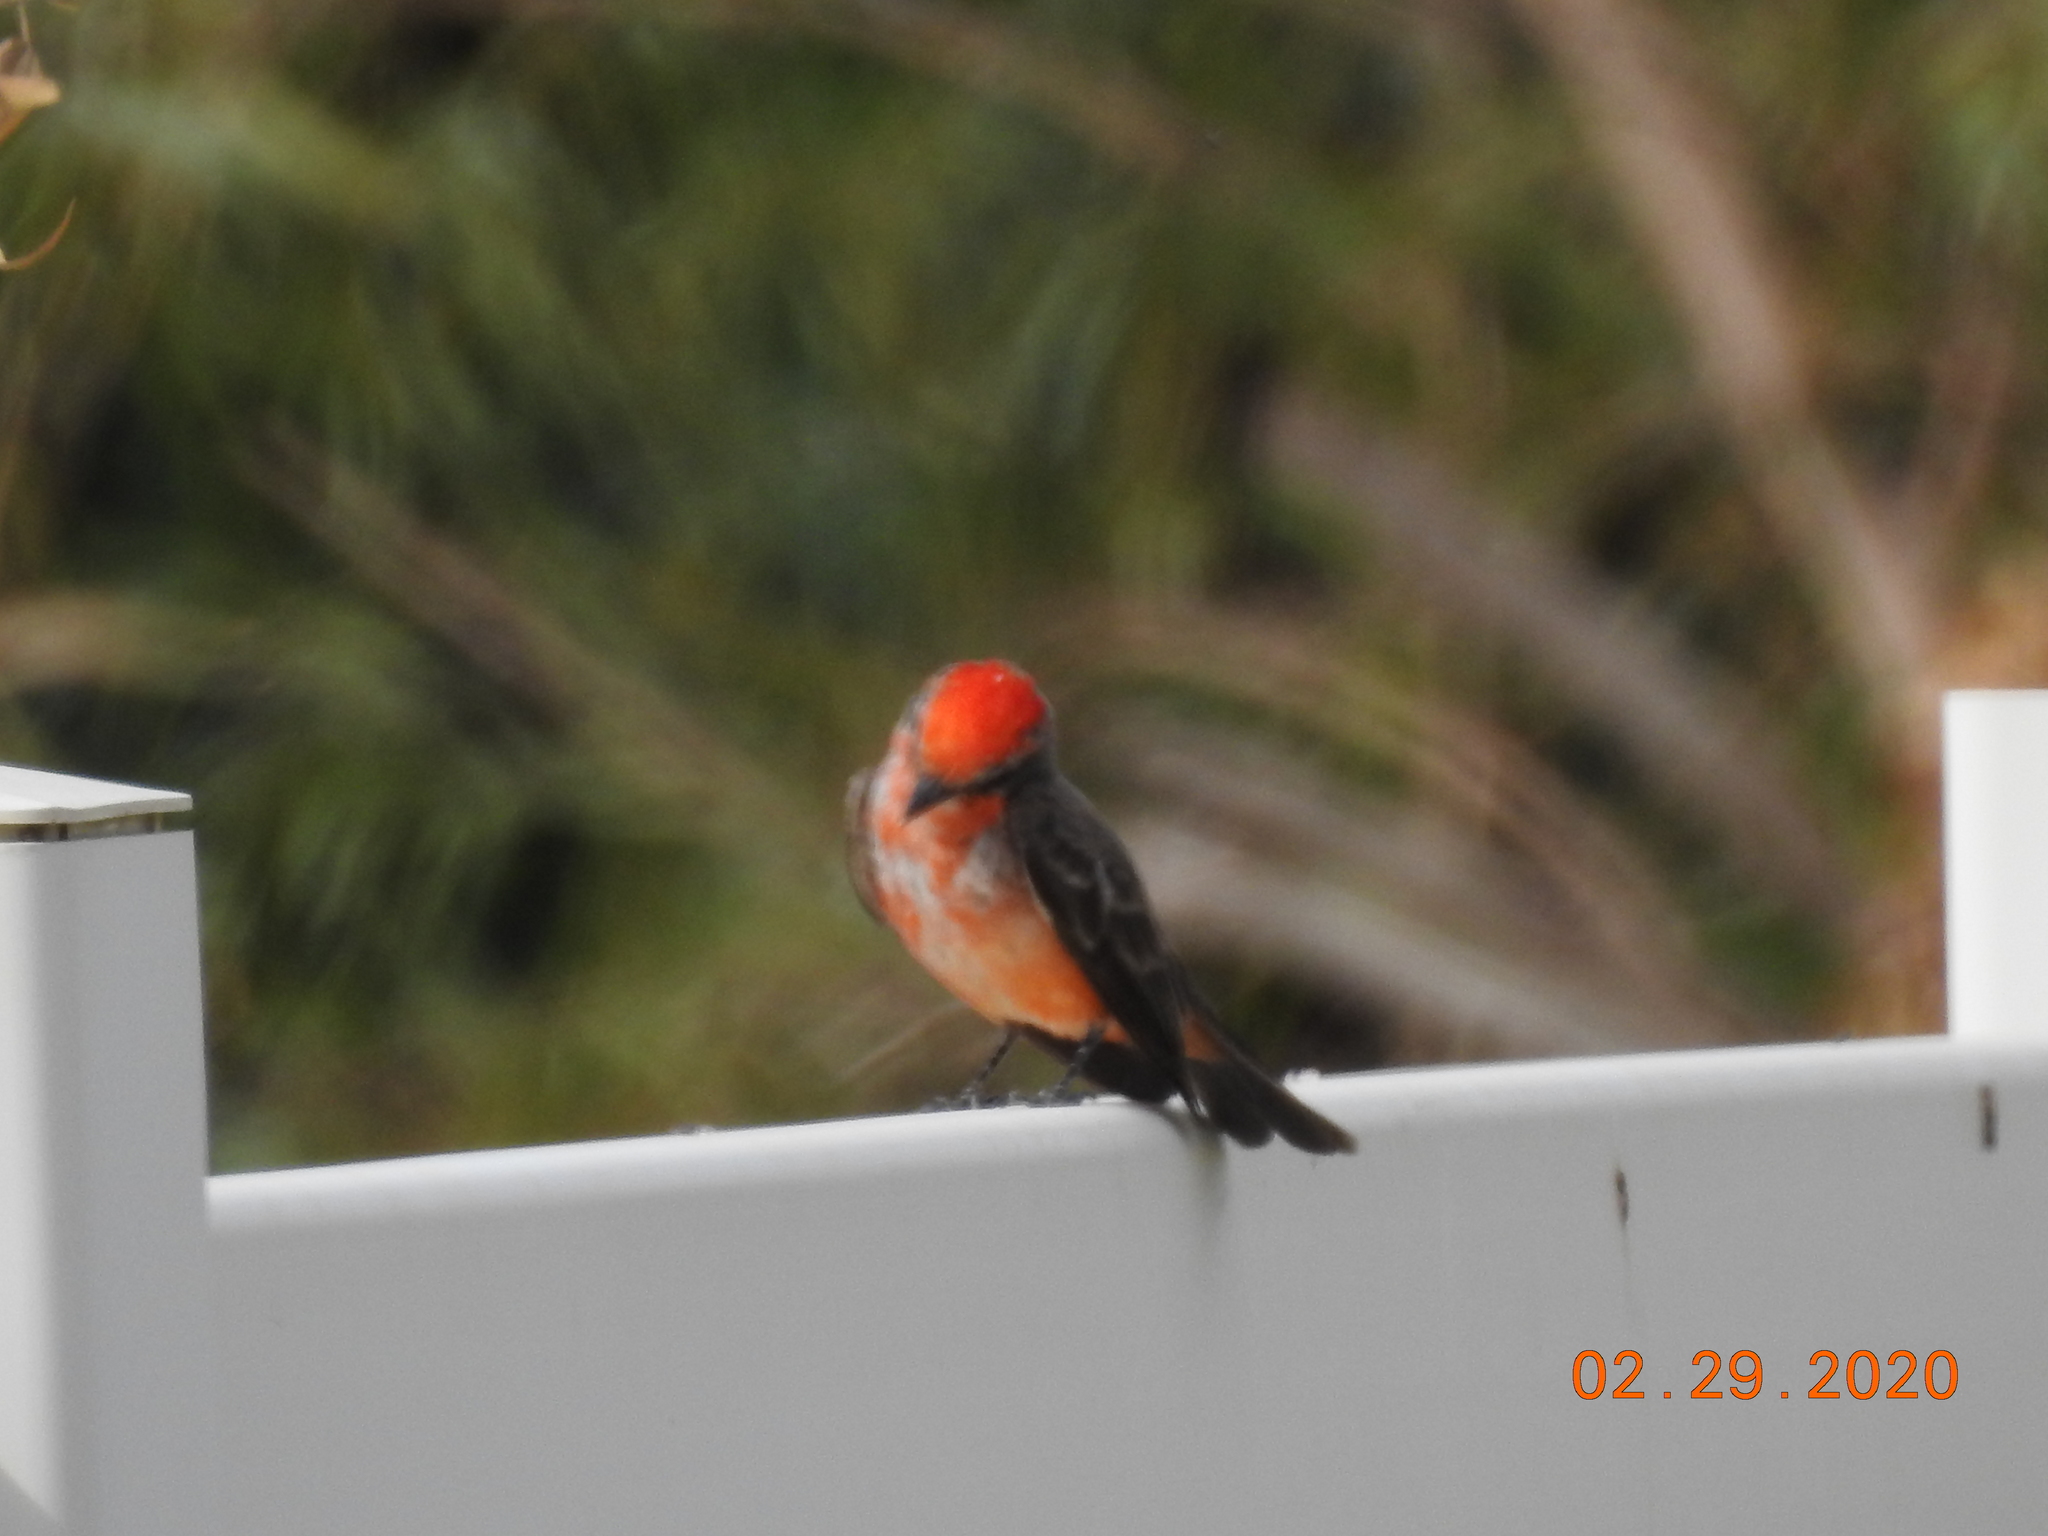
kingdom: Animalia
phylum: Chordata
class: Aves
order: Passeriformes
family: Tyrannidae
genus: Pyrocephalus
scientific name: Pyrocephalus rubinus
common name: Vermilion flycatcher
